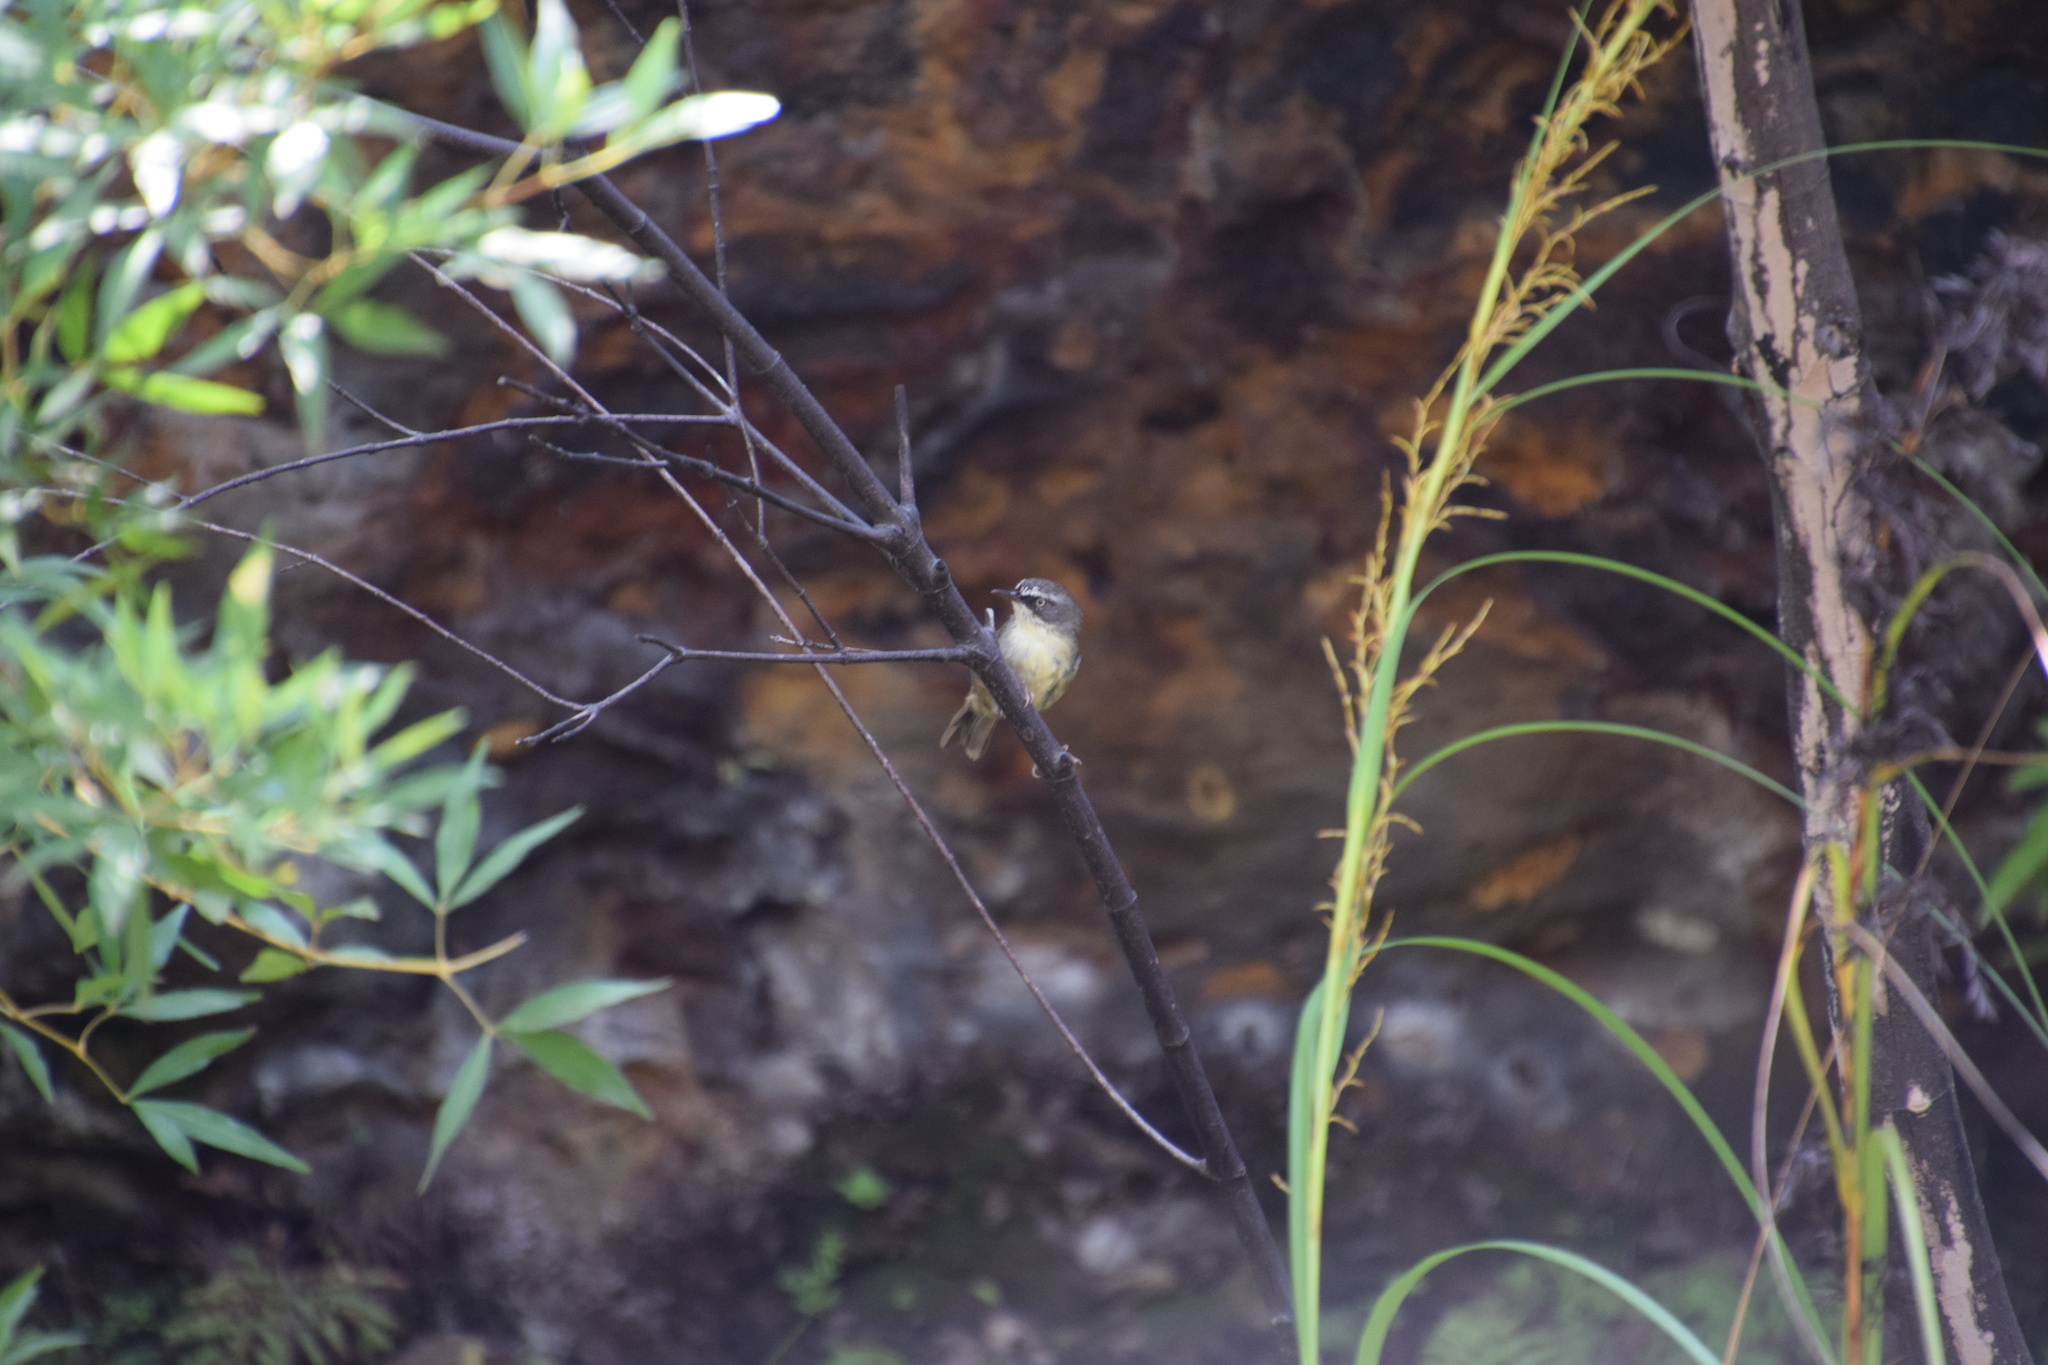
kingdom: Animalia
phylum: Chordata
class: Aves
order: Passeriformes
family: Acanthizidae
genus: Sericornis
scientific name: Sericornis frontalis
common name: White-browed scrubwren
